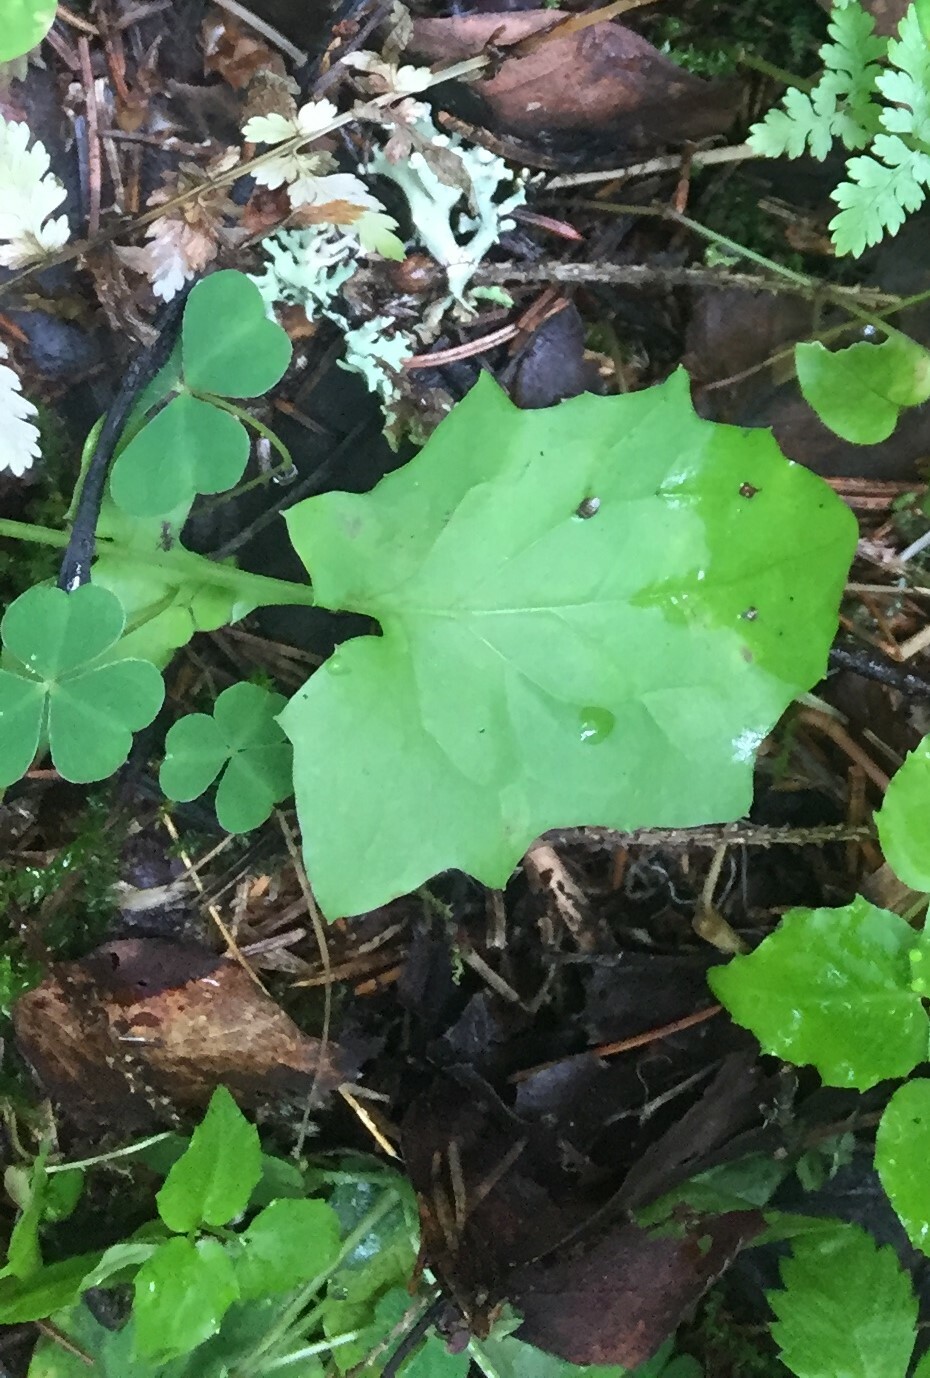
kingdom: Plantae
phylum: Tracheophyta
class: Magnoliopsida
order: Asterales
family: Asteraceae
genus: Mycelis
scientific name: Mycelis muralis
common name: Wall lettuce
